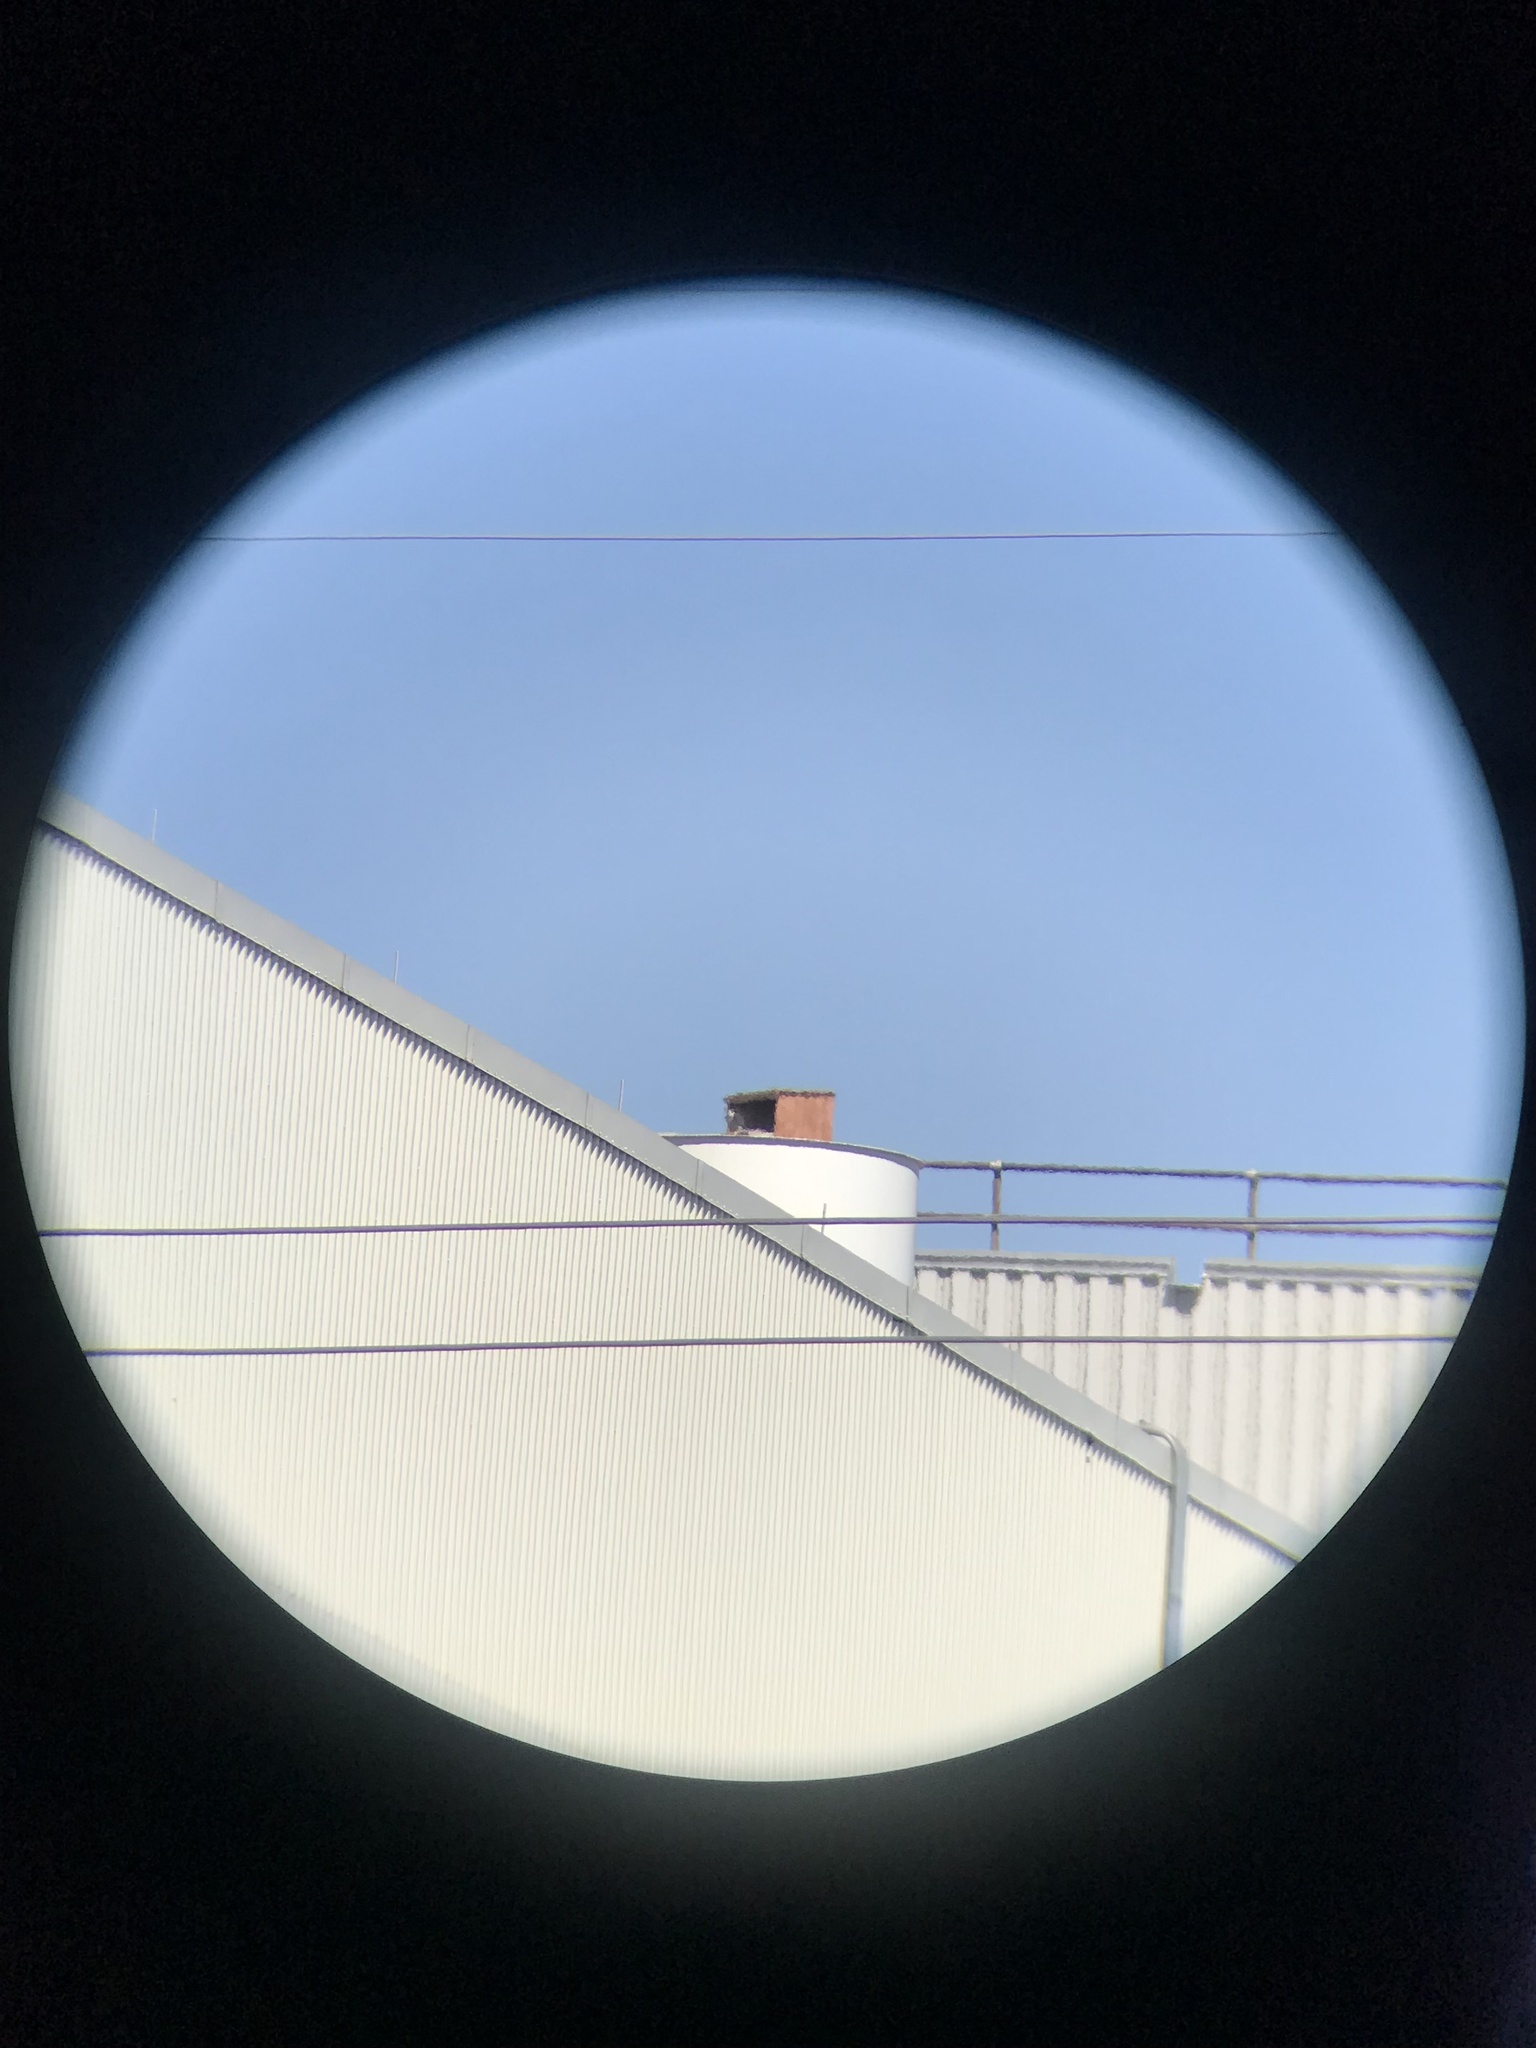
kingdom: Animalia
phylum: Chordata
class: Aves
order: Falconiformes
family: Falconidae
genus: Falco
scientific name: Falco peregrinus
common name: Peregrine falcon
